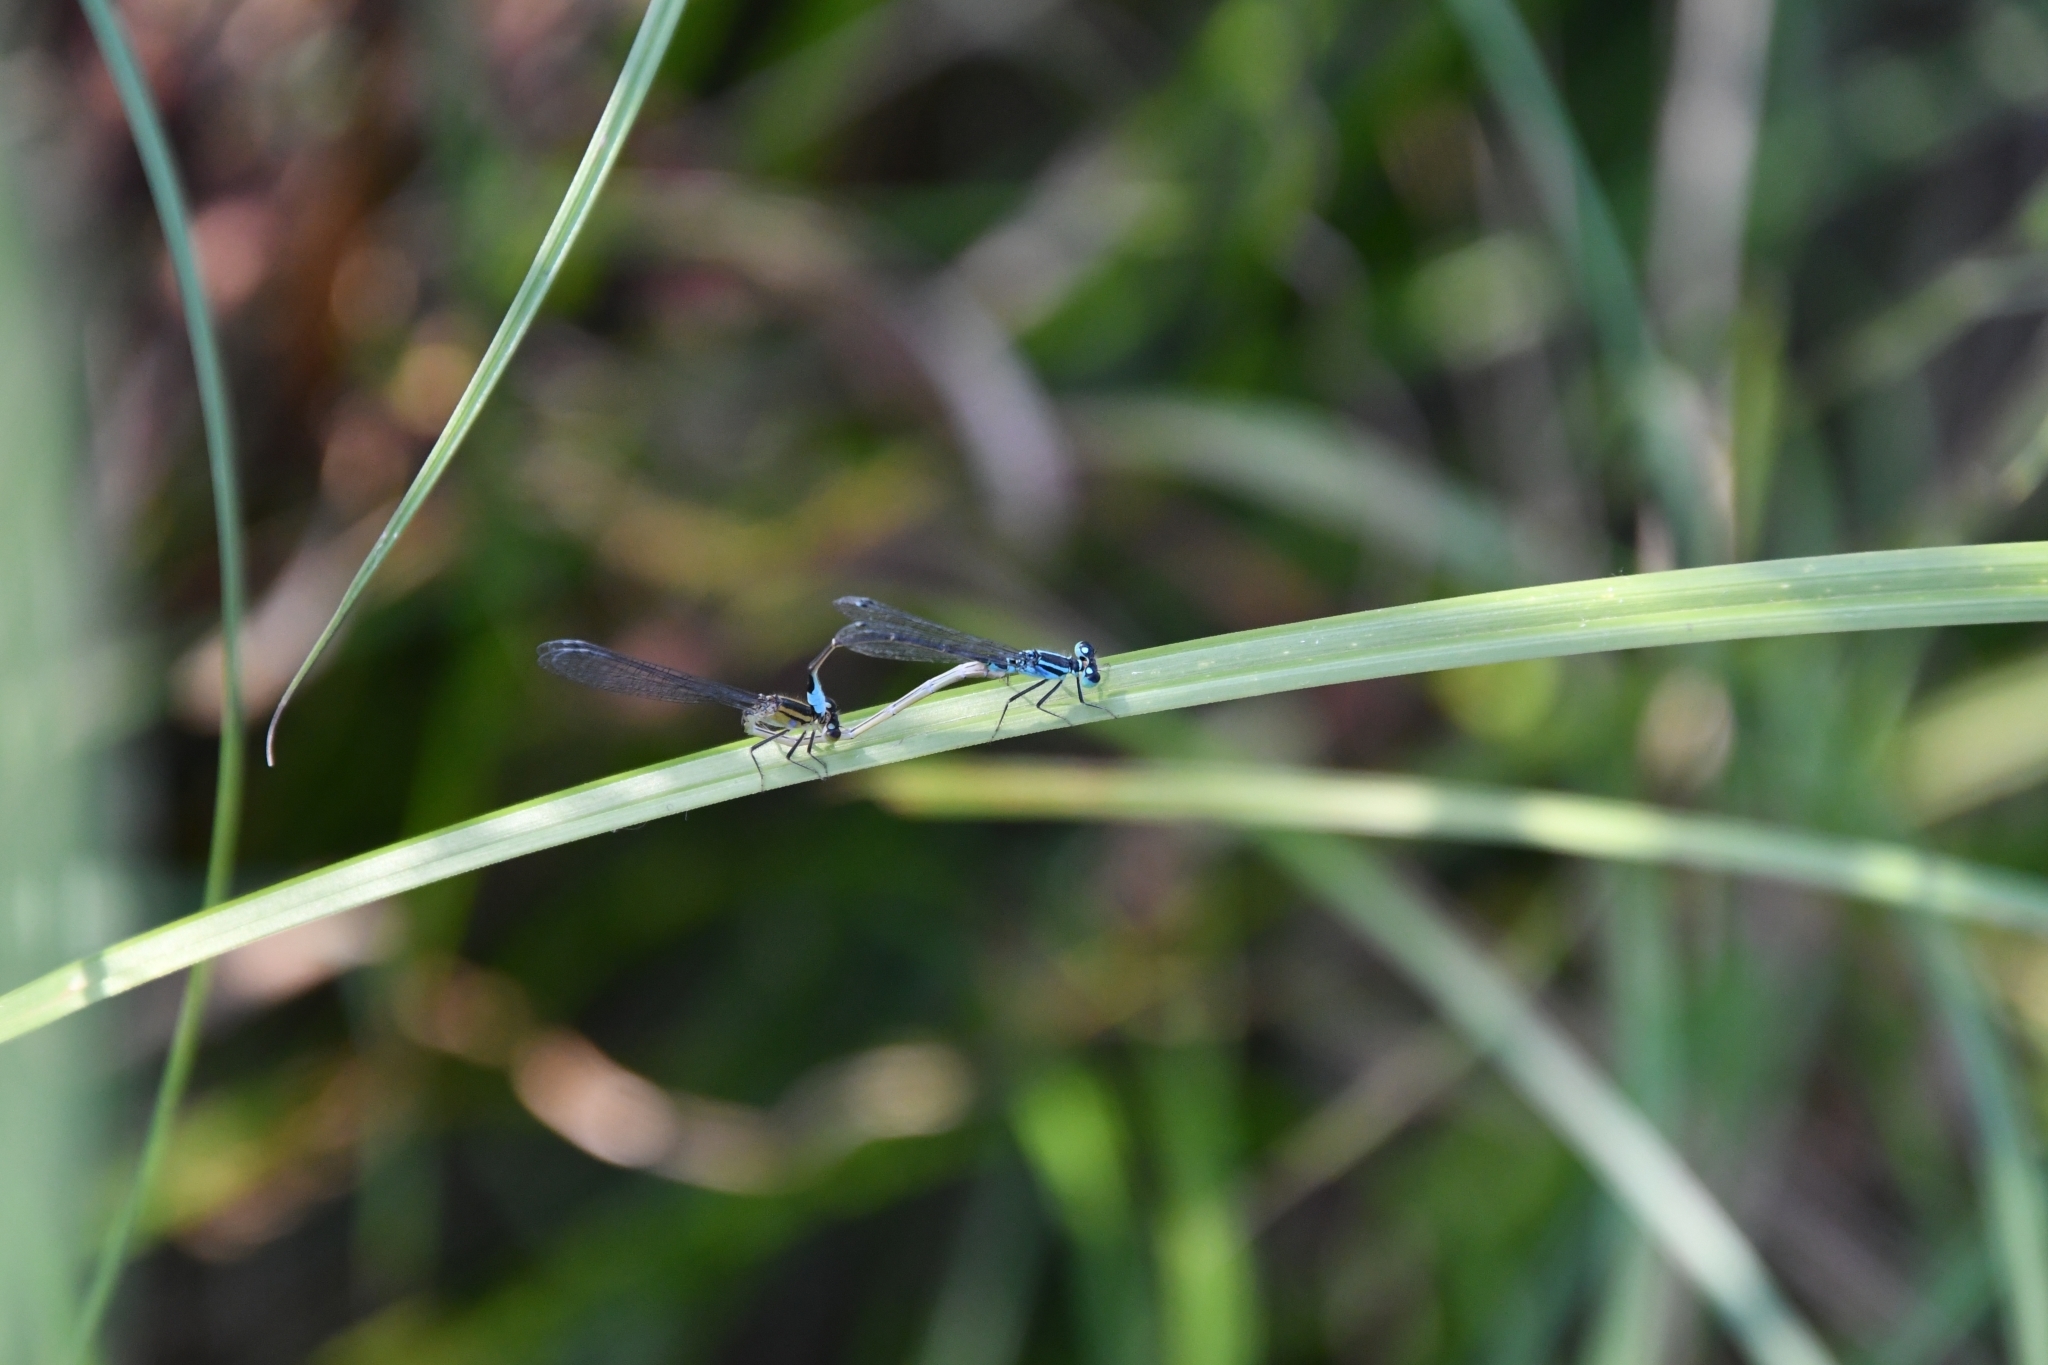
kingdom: Animalia
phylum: Arthropoda
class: Insecta
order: Odonata
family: Coenagrionidae
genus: Ischnura
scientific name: Ischnura elegans
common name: Blue-tailed damselfly
